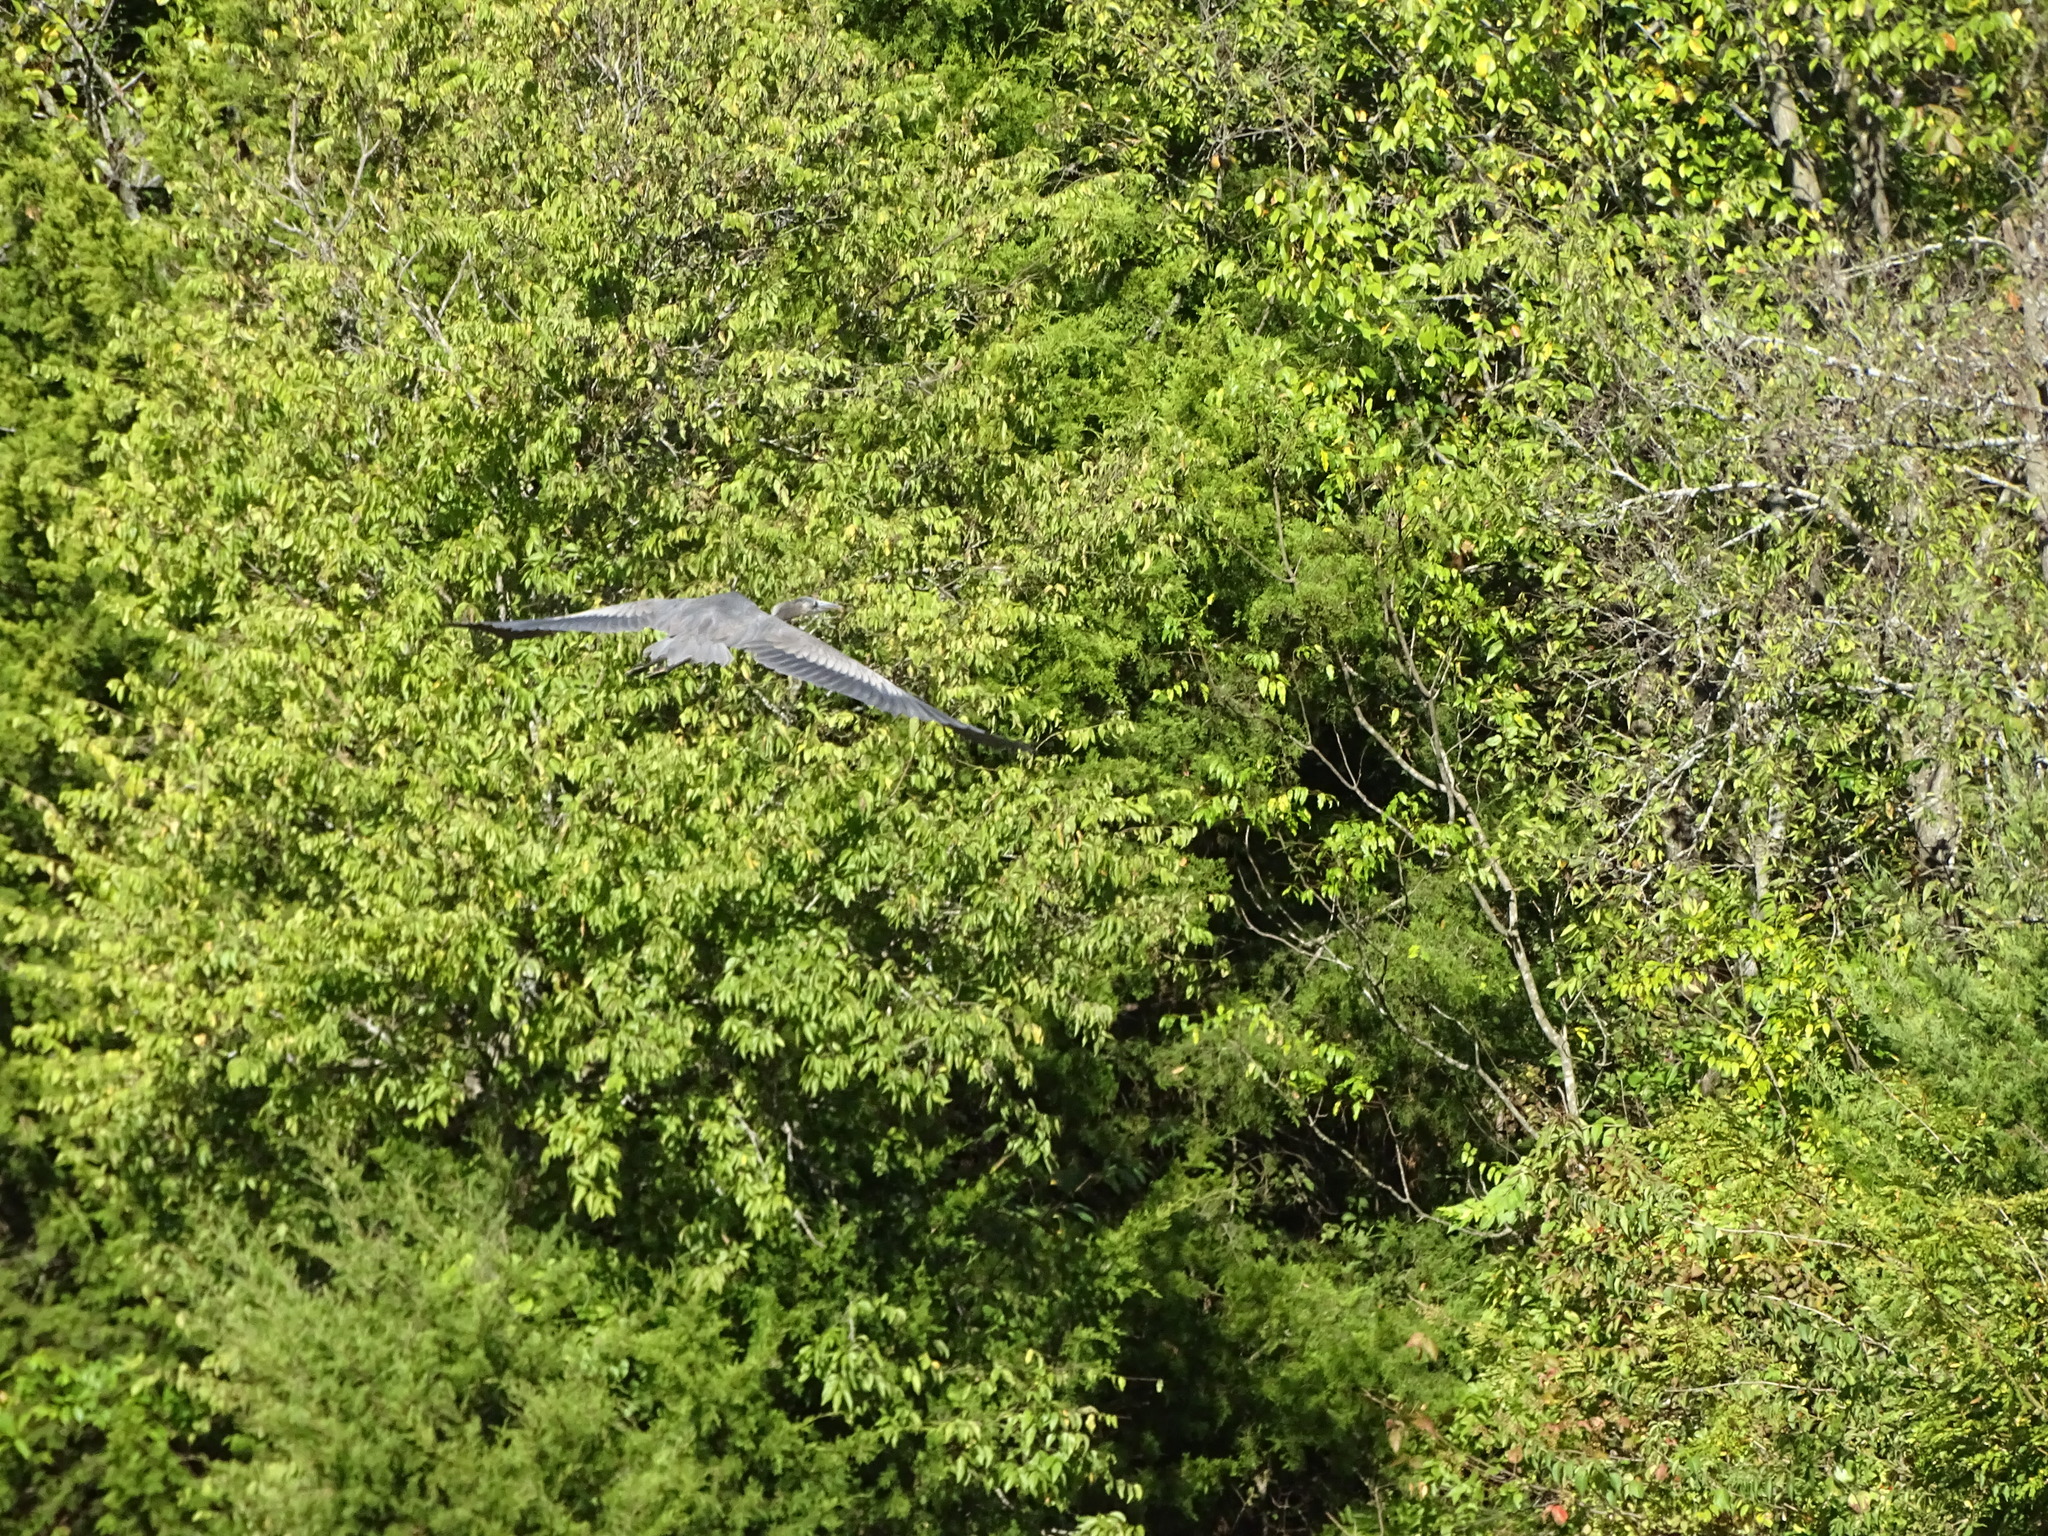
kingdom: Animalia
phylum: Chordata
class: Aves
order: Pelecaniformes
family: Ardeidae
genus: Ardea
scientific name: Ardea herodias
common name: Great blue heron
